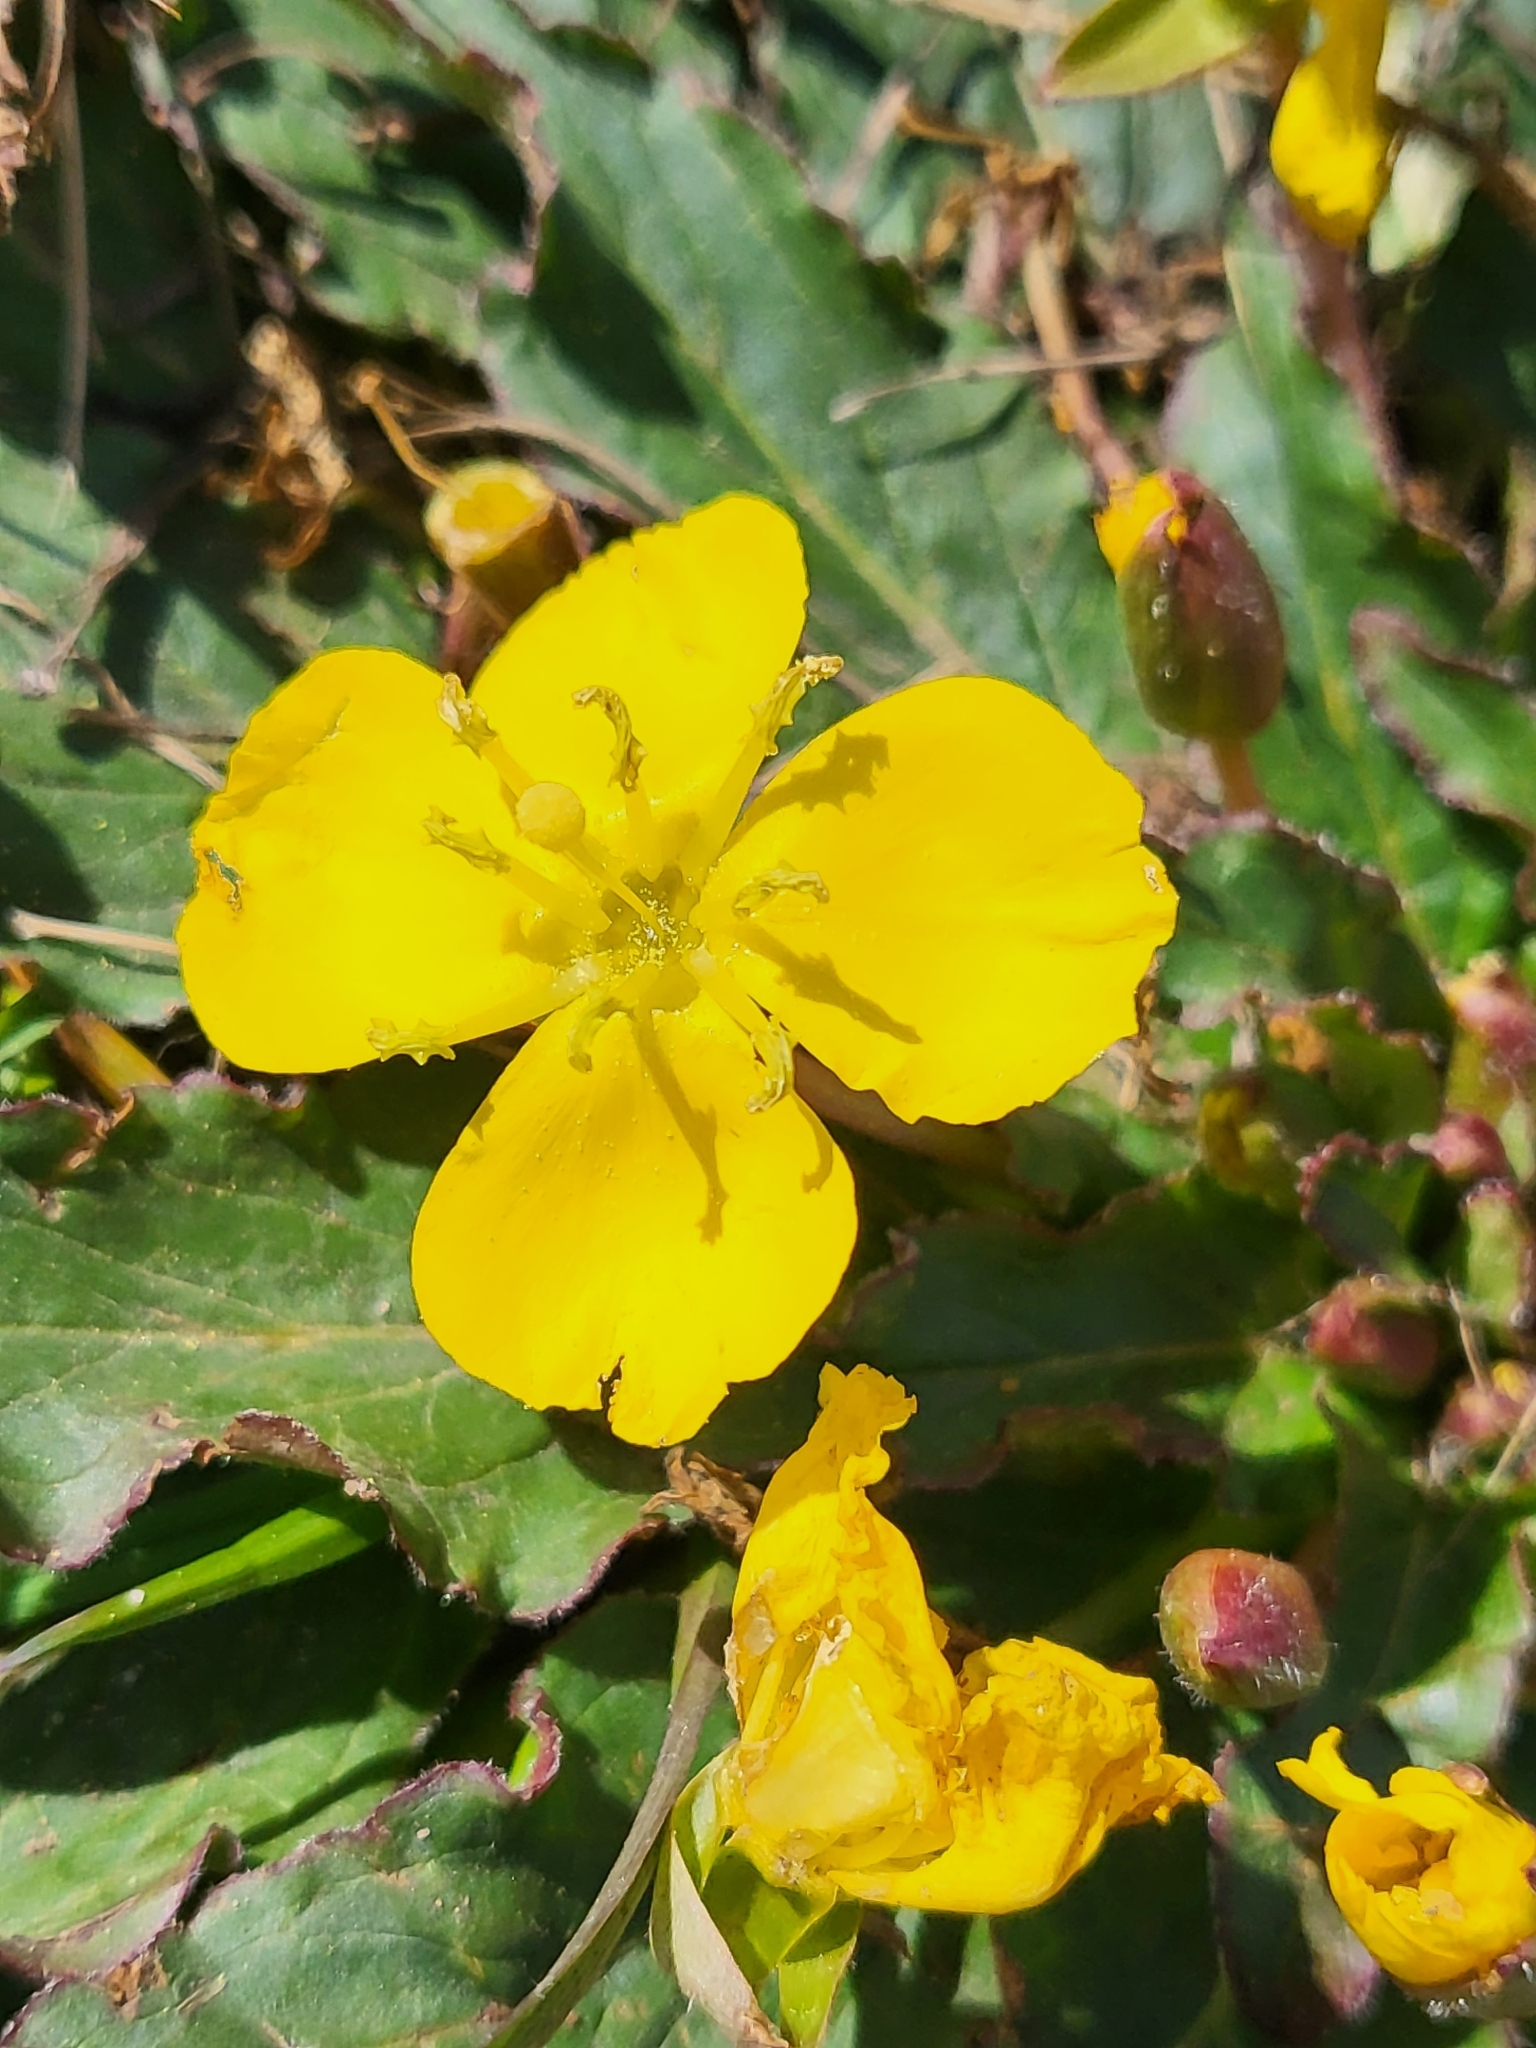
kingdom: Plantae
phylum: Tracheophyta
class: Magnoliopsida
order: Myrtales
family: Onagraceae
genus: Taraxia
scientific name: Taraxia ovata
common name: Goldeneggs
